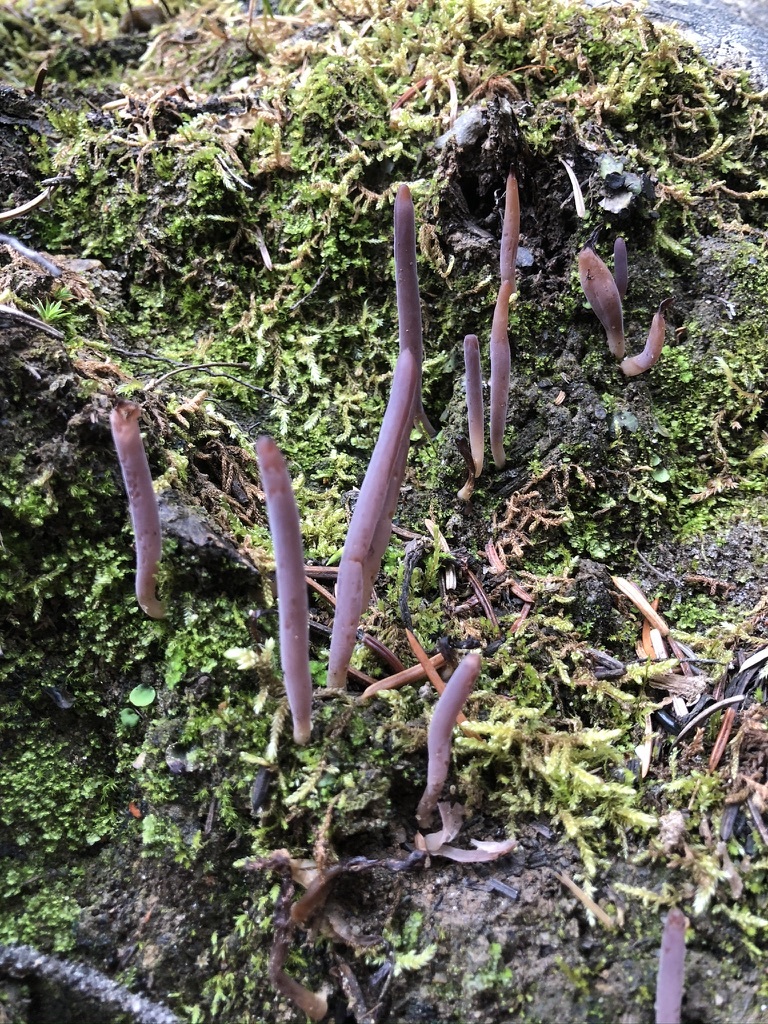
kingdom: Fungi
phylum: Basidiomycota
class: Agaricomycetes
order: Hymenochaetales
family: Rickenellaceae
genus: Alloclavaria
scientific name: Alloclavaria purpurea
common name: Purple spindles
